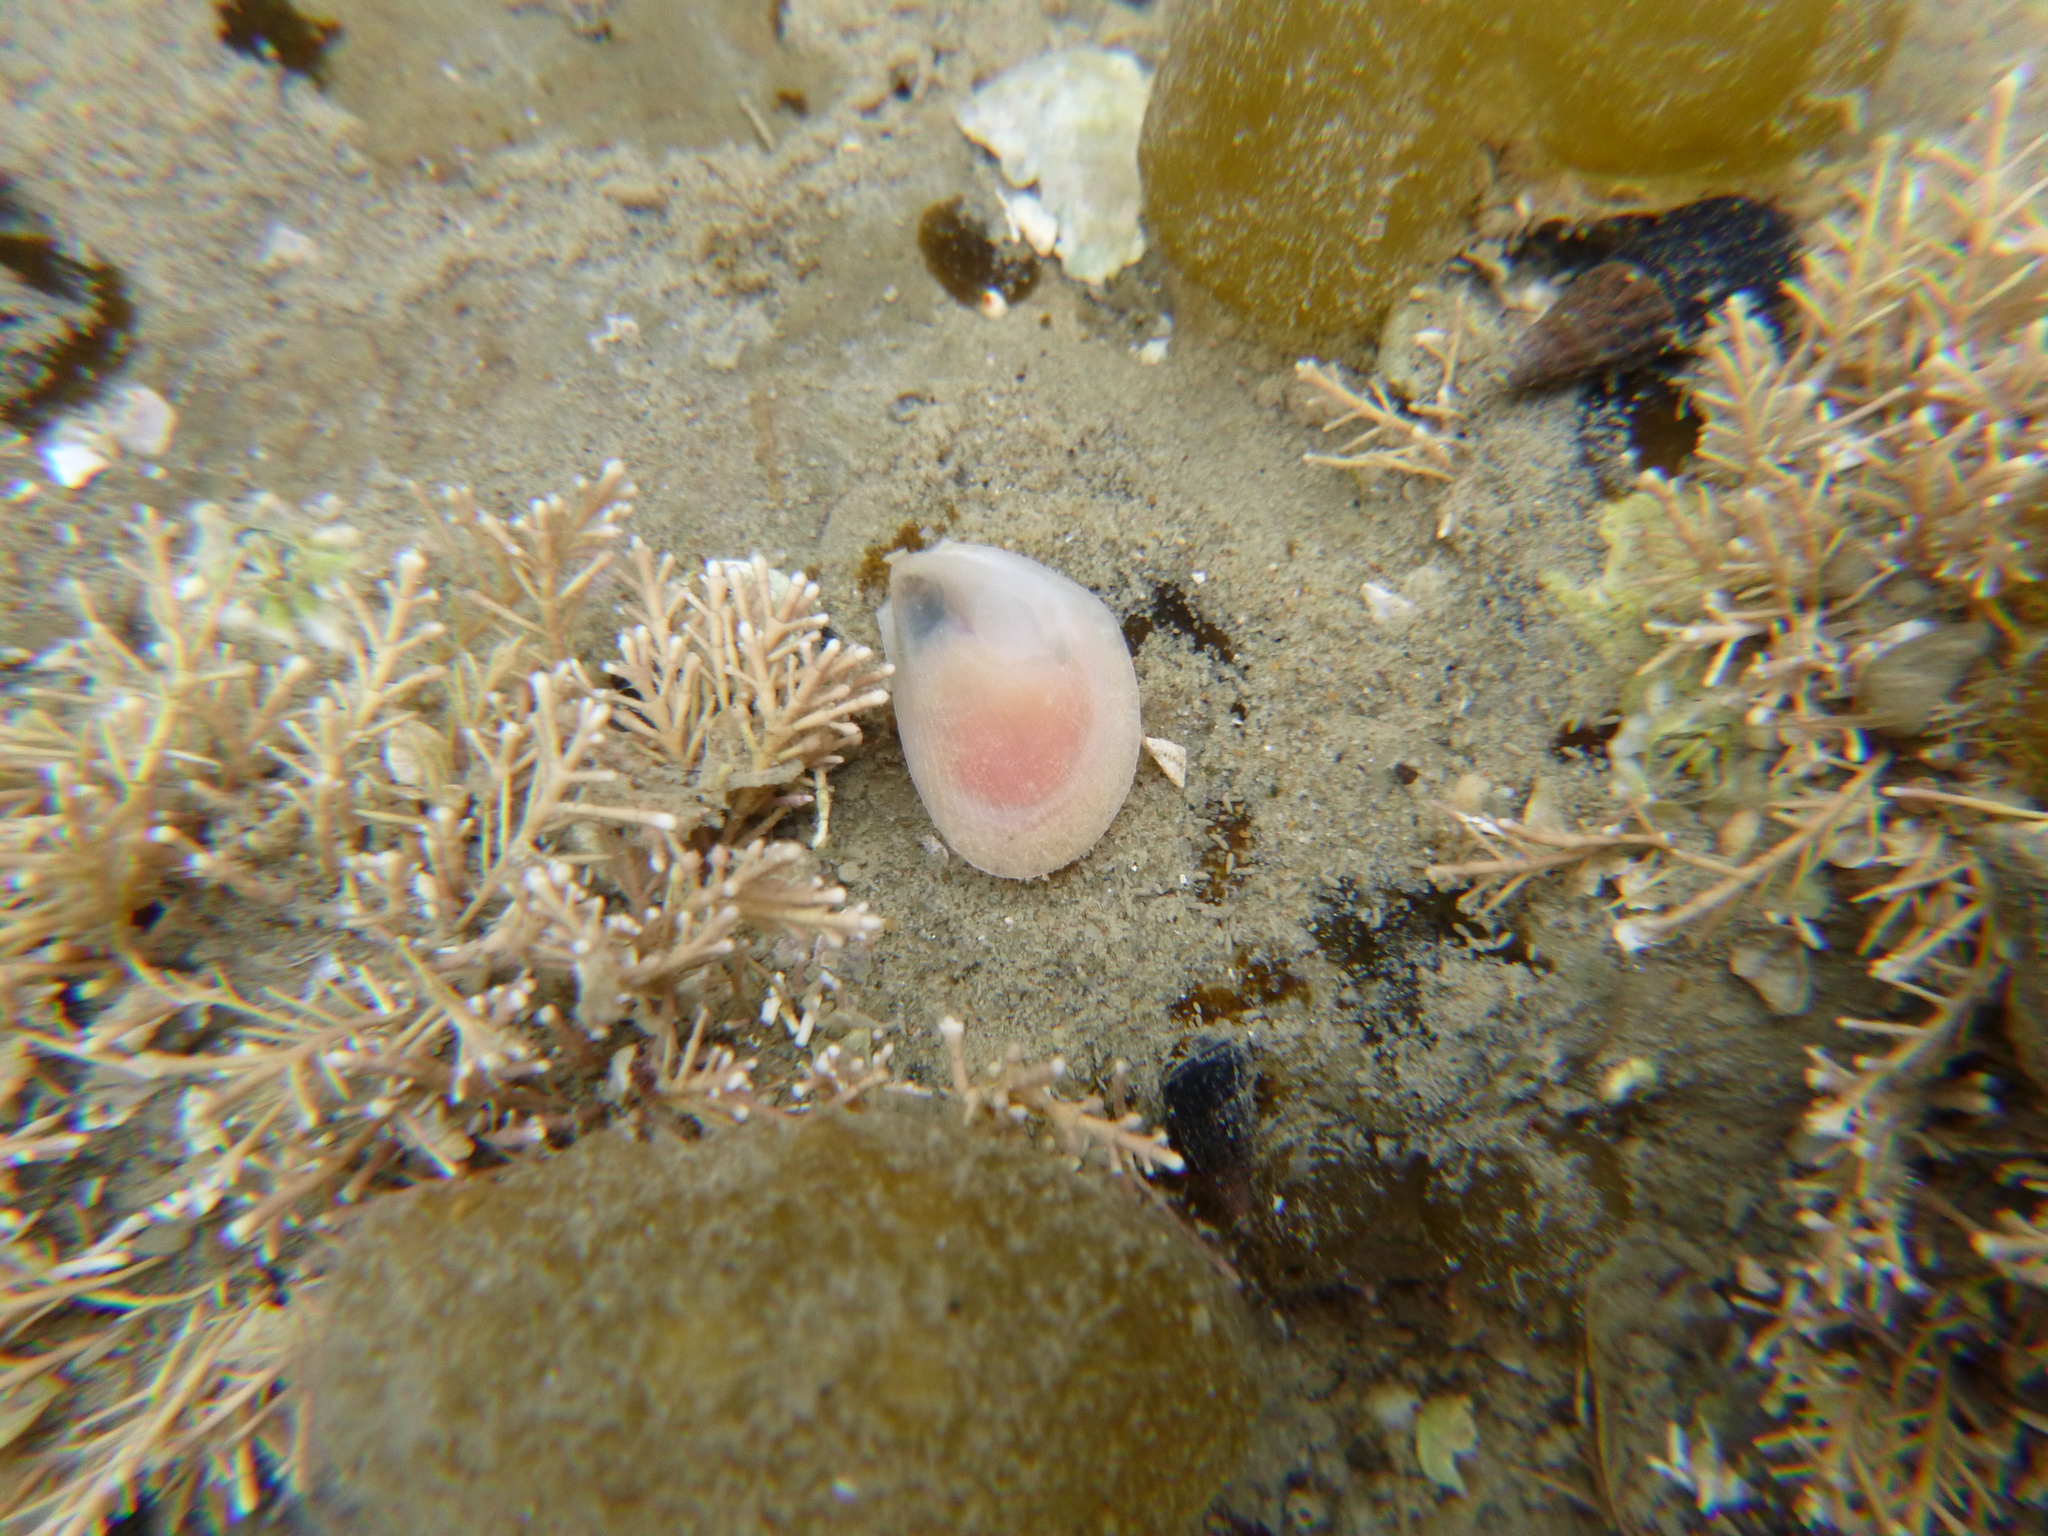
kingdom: Animalia
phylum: Mollusca
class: Bivalvia
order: Limida
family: Limidae
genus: Limaria
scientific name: Limaria orientalis
